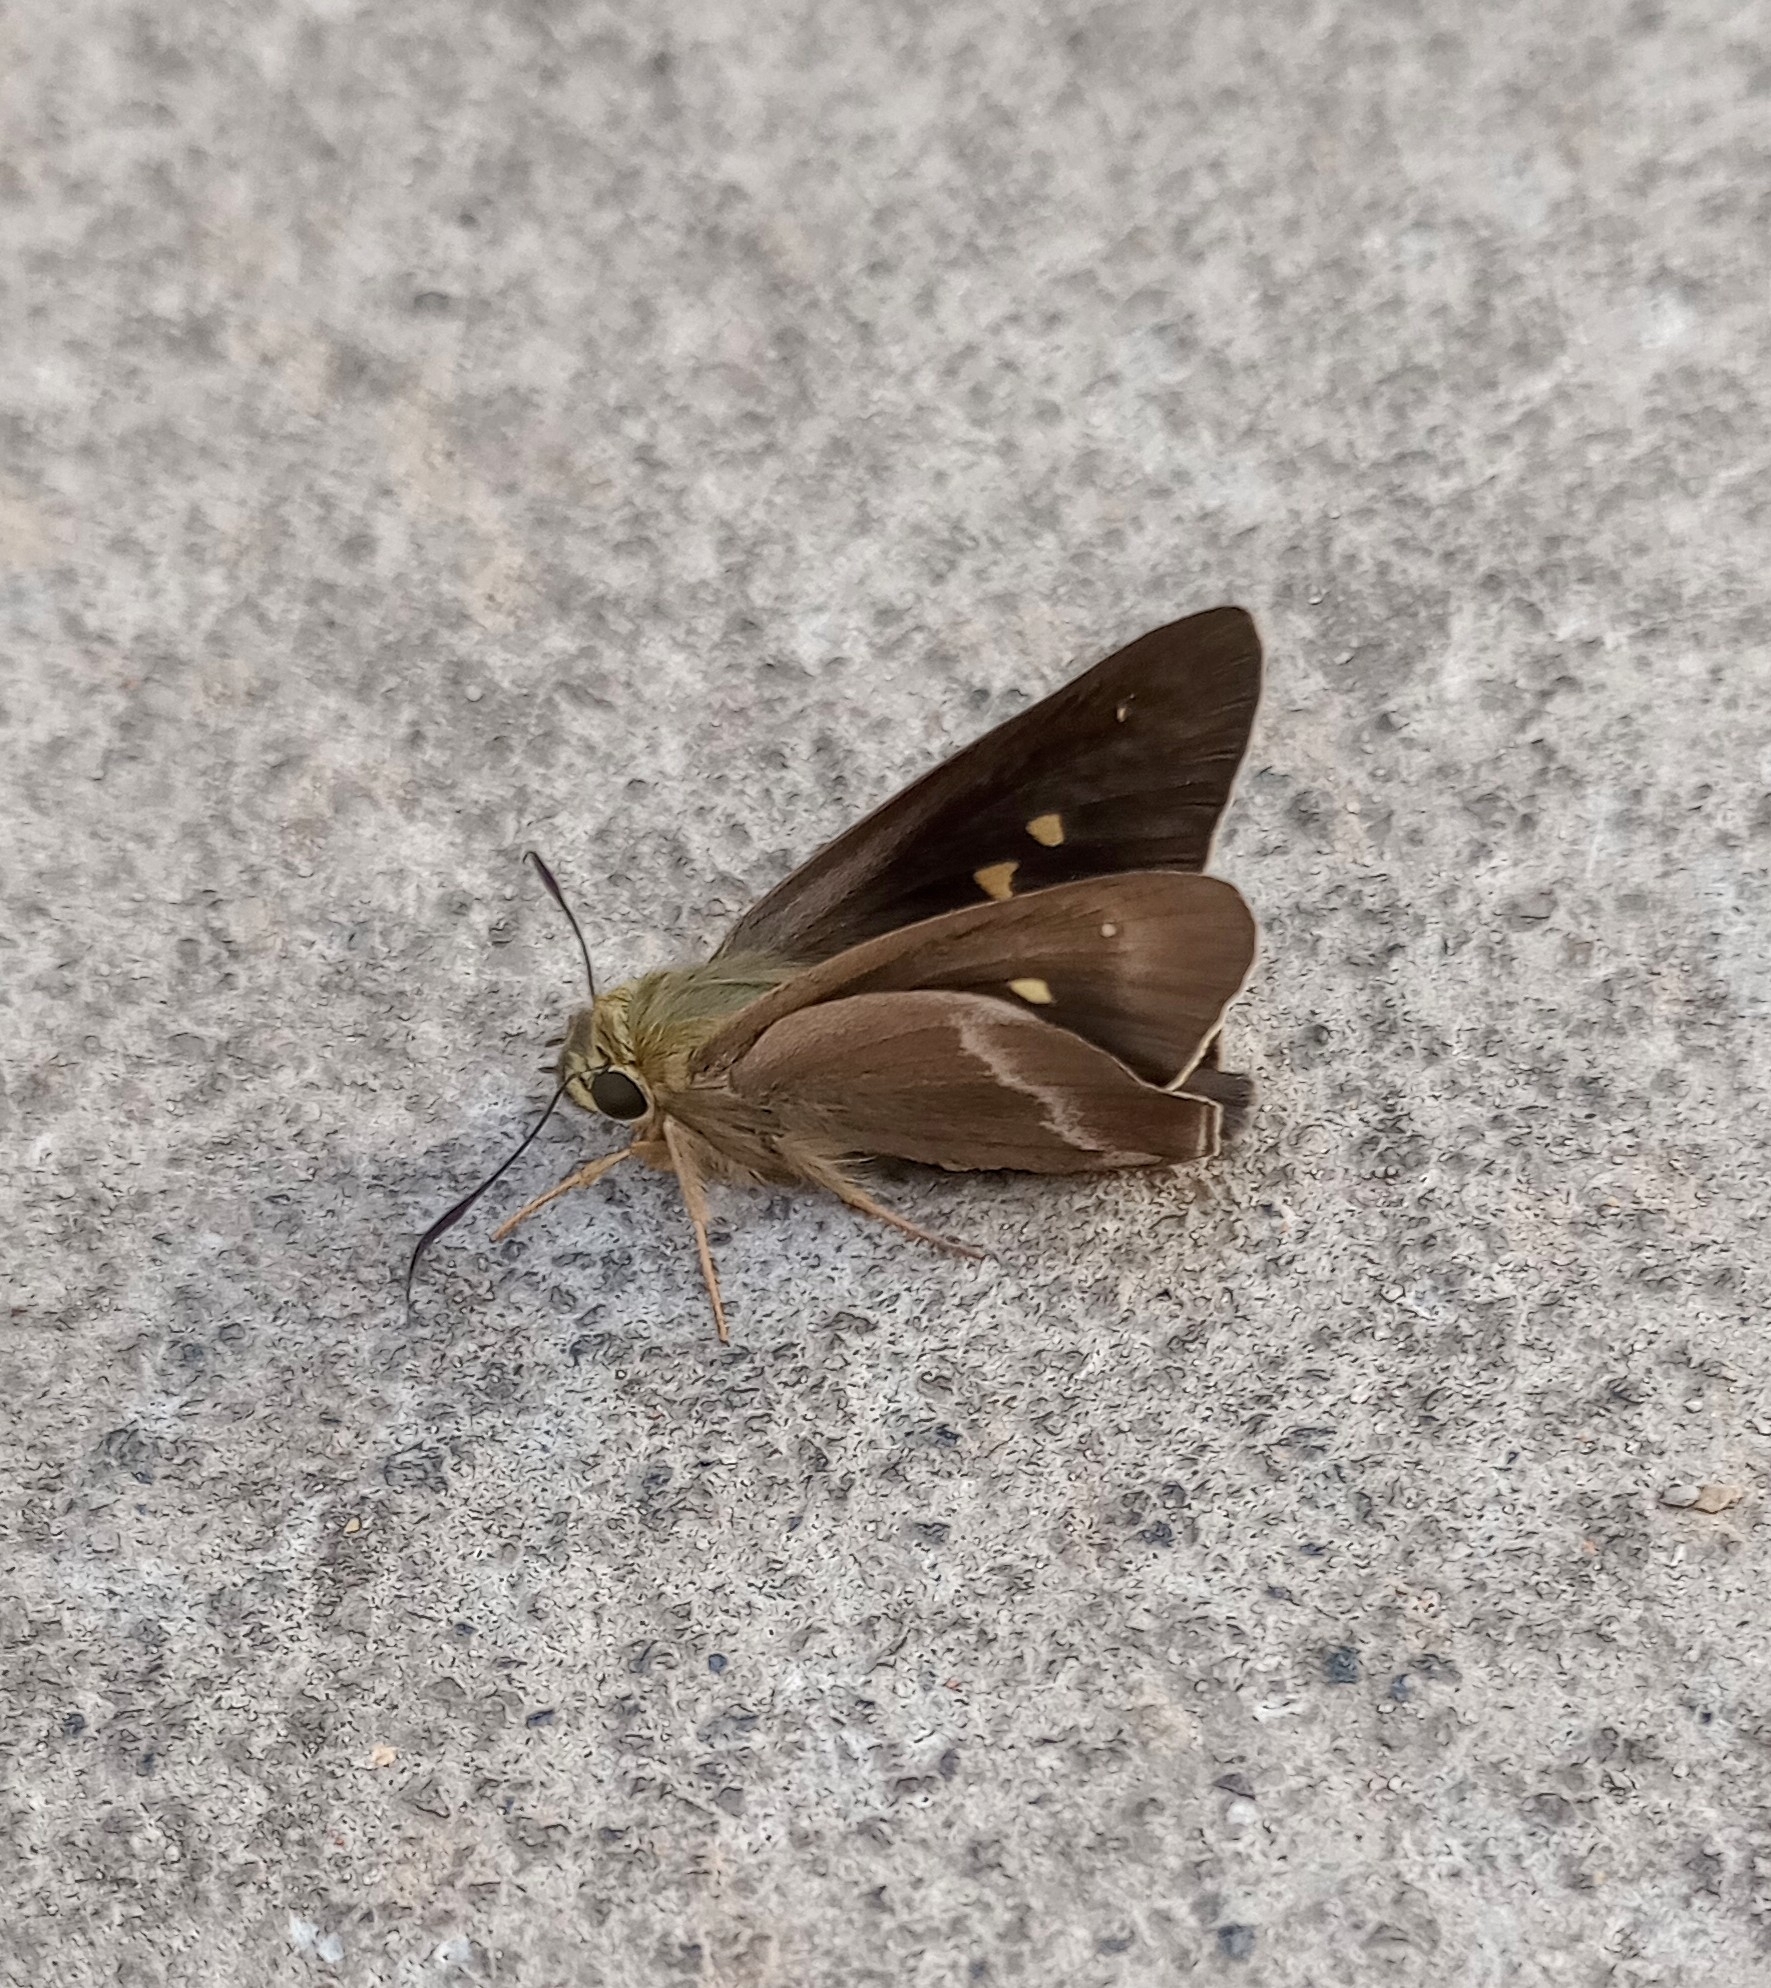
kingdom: Animalia
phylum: Arthropoda
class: Insecta
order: Lepidoptera
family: Hesperiidae
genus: Hasora
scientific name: Hasora chromus
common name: Common banded awl
